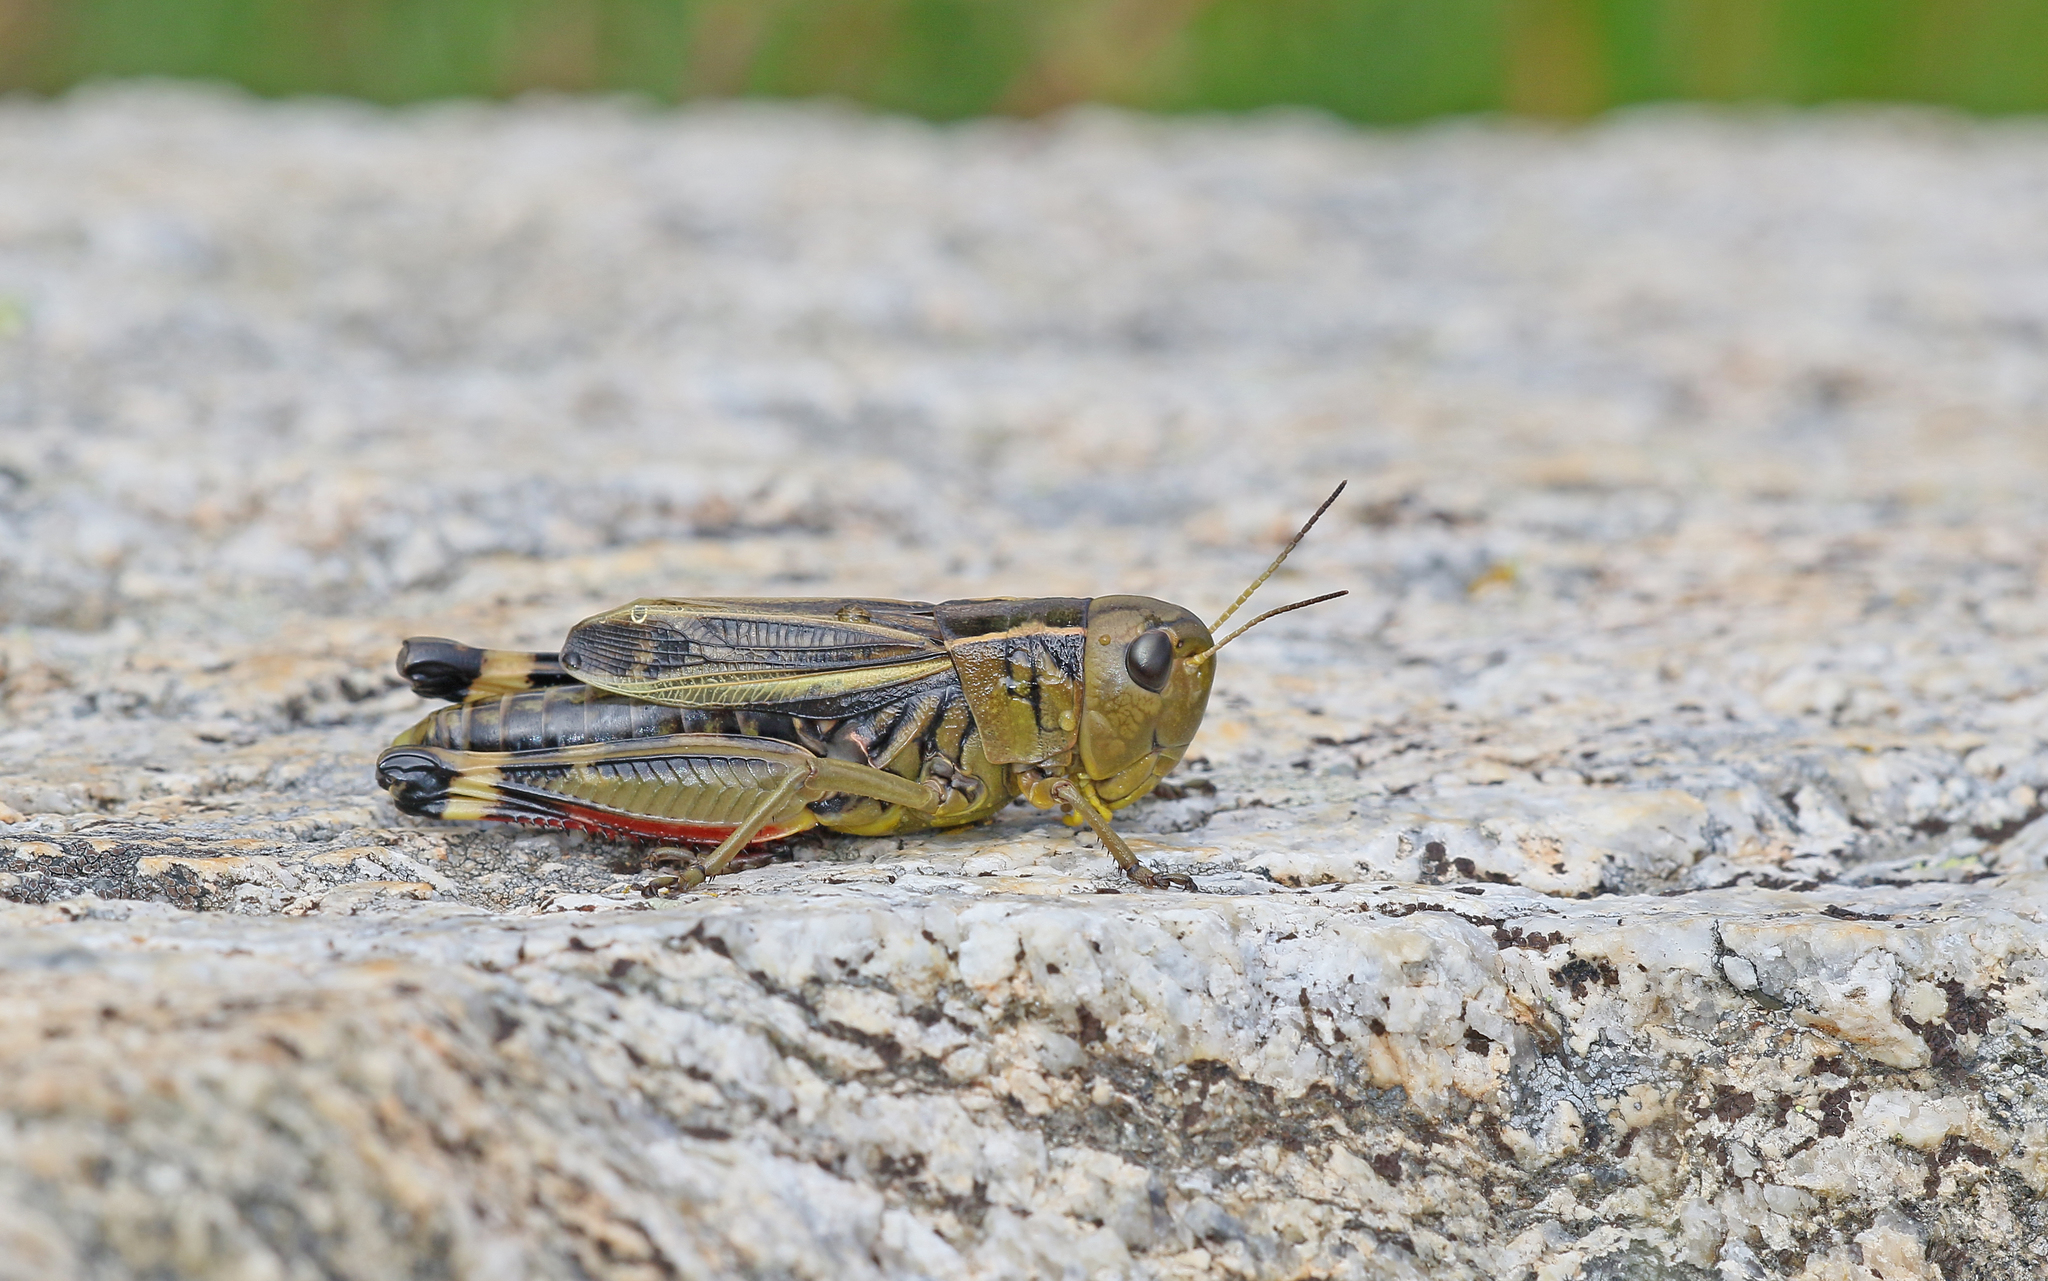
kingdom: Animalia
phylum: Arthropoda
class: Insecta
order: Orthoptera
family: Acrididae
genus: Arcyptera
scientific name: Arcyptera fusca
